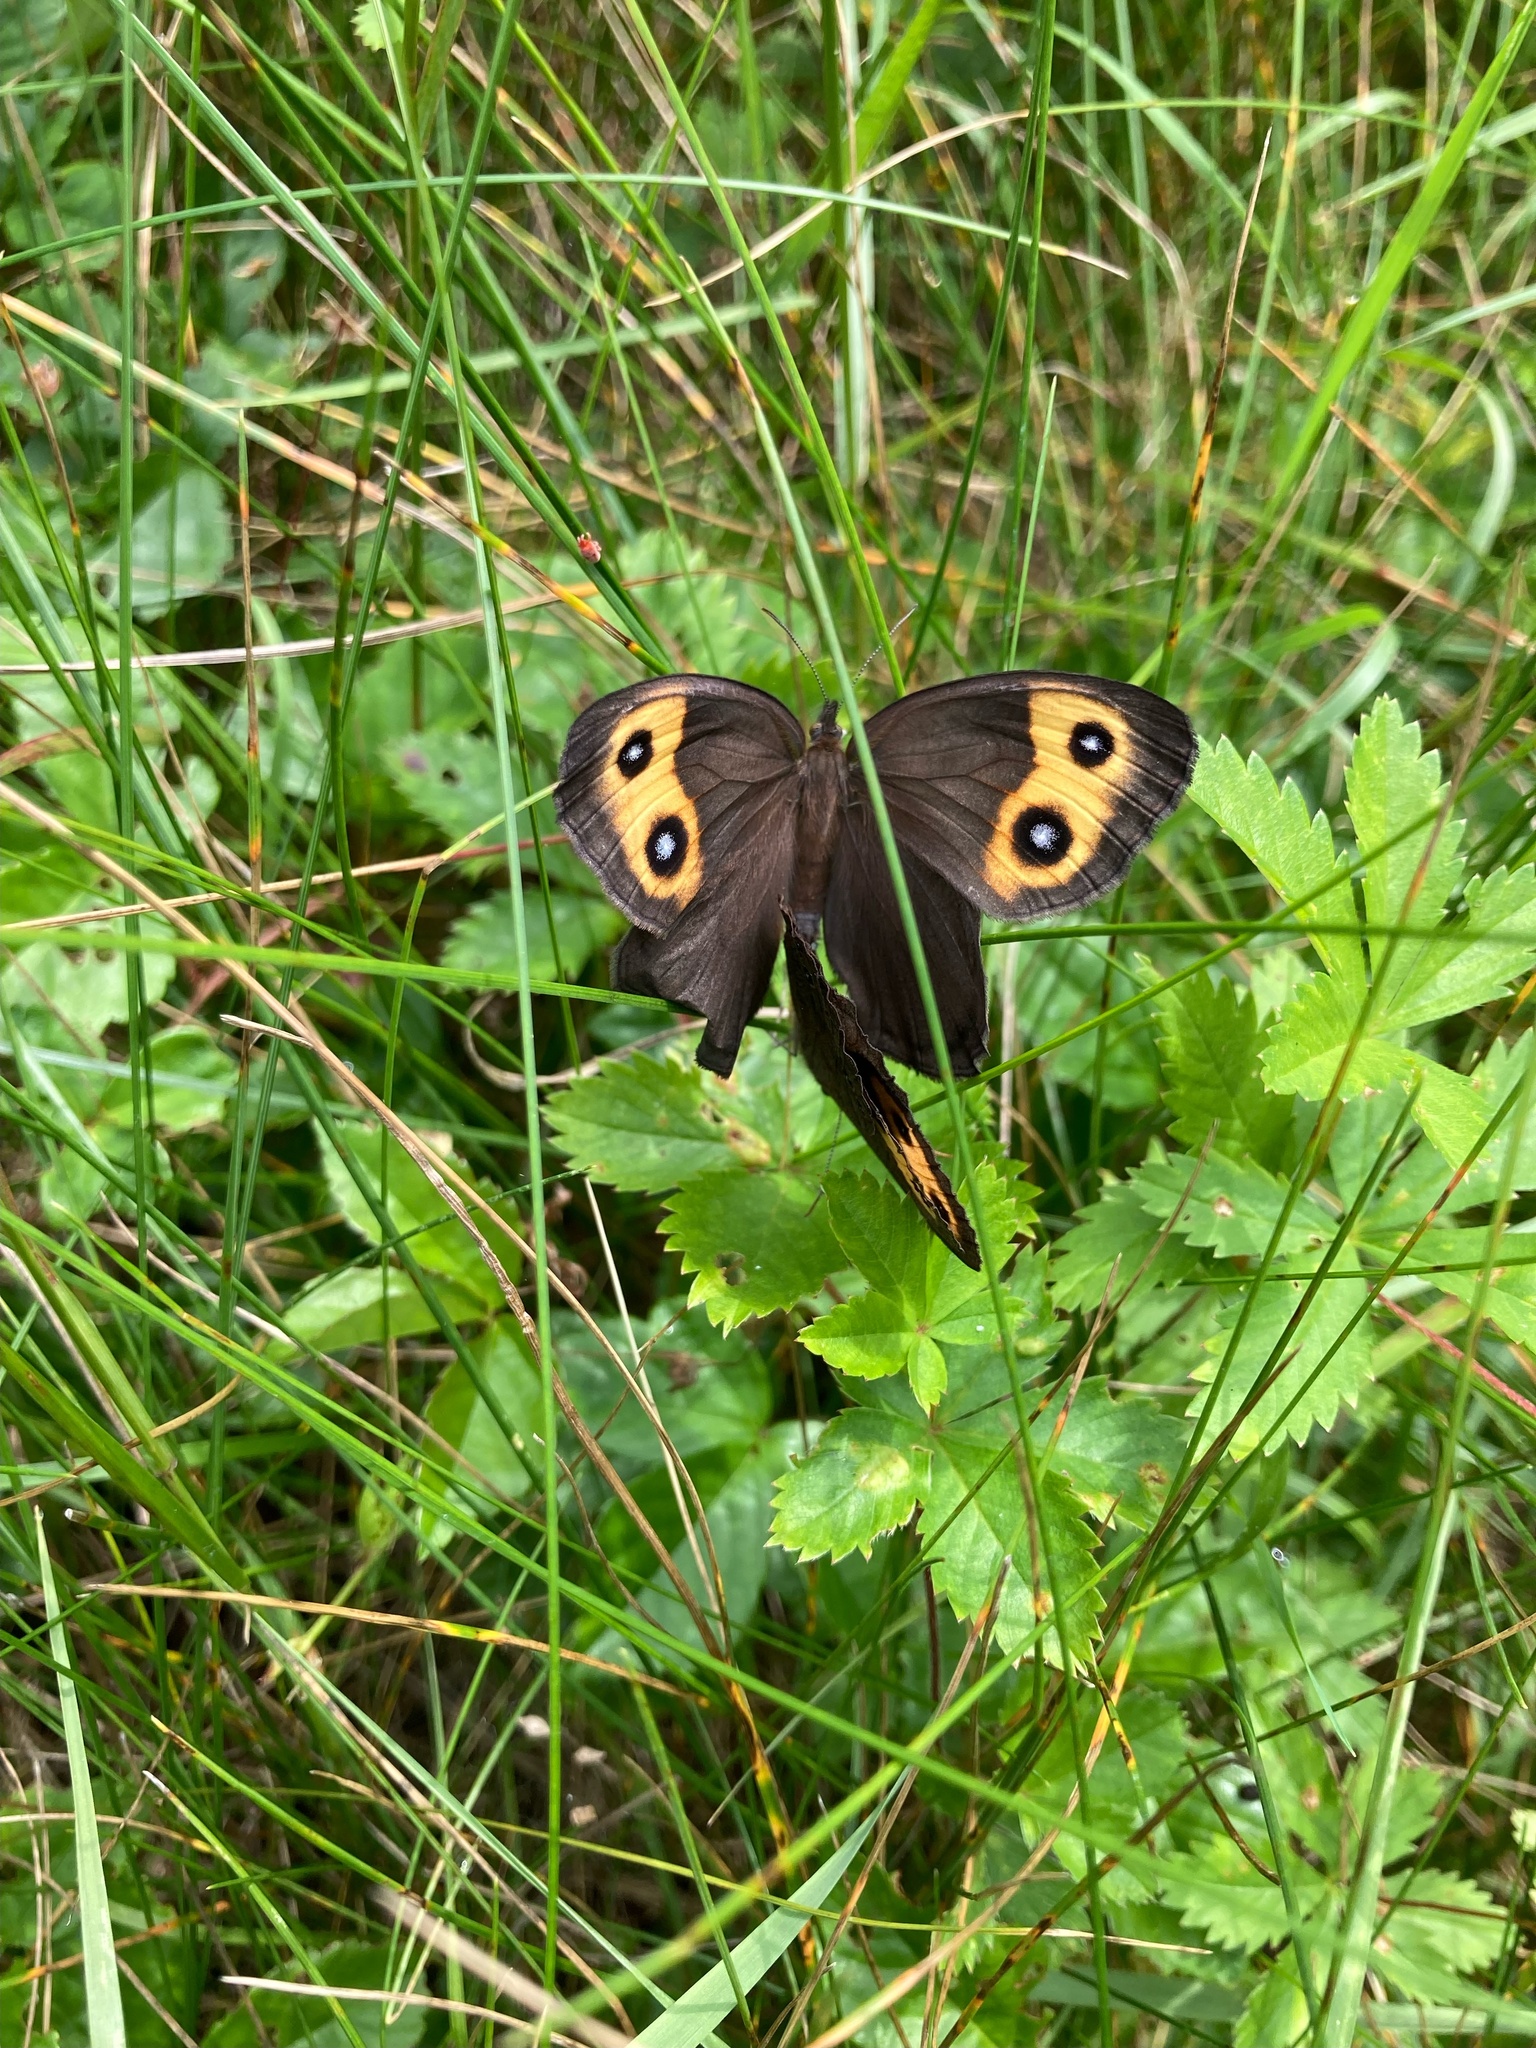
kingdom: Animalia
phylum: Arthropoda
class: Insecta
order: Lepidoptera
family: Nymphalidae
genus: Cercyonis
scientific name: Cercyonis pegala
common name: Common wood-nymph
